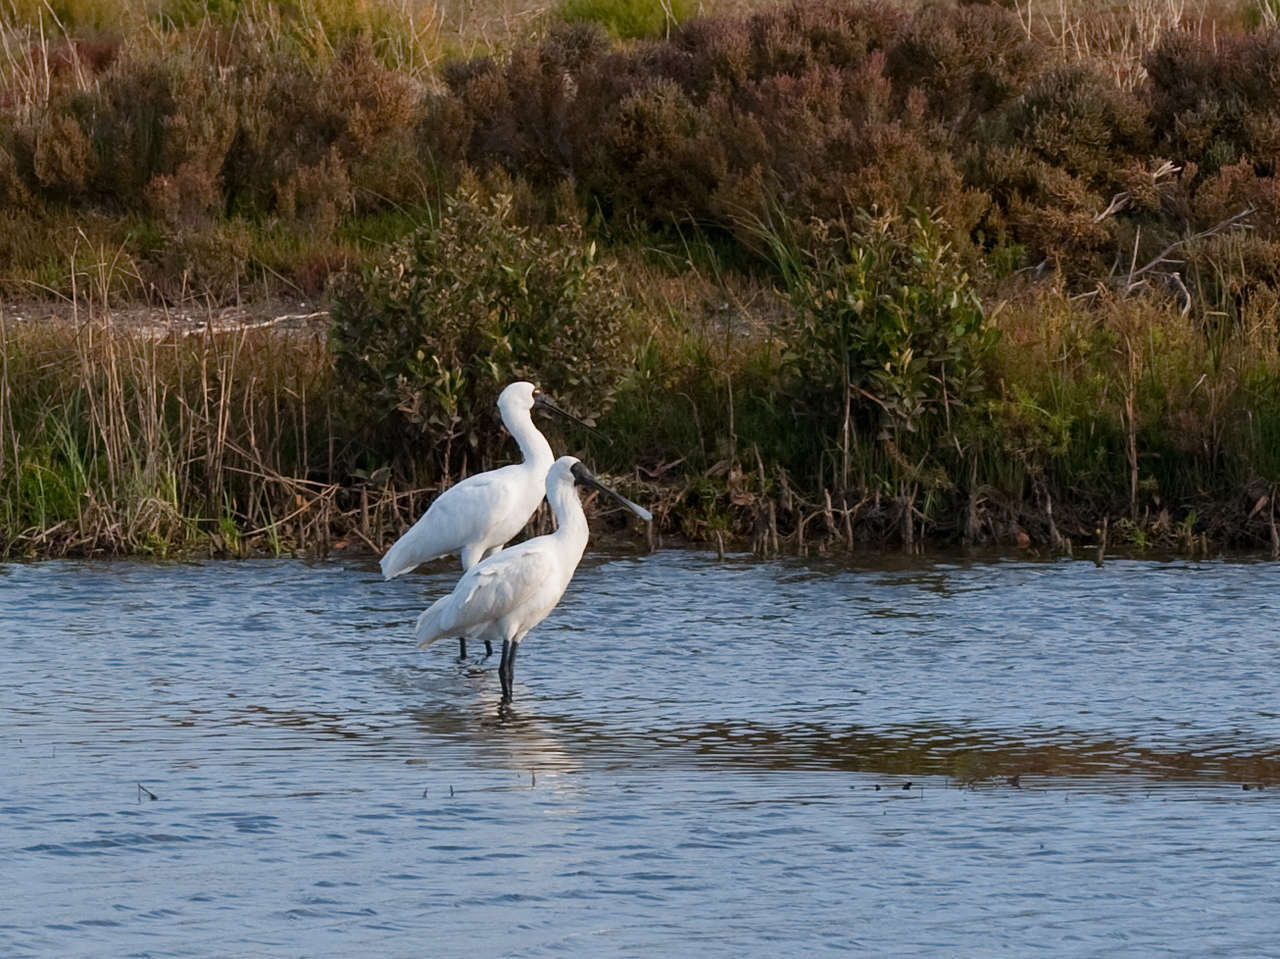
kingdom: Animalia
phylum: Chordata
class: Aves
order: Pelecaniformes
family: Threskiornithidae
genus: Platalea
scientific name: Platalea regia
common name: Royal spoonbill
